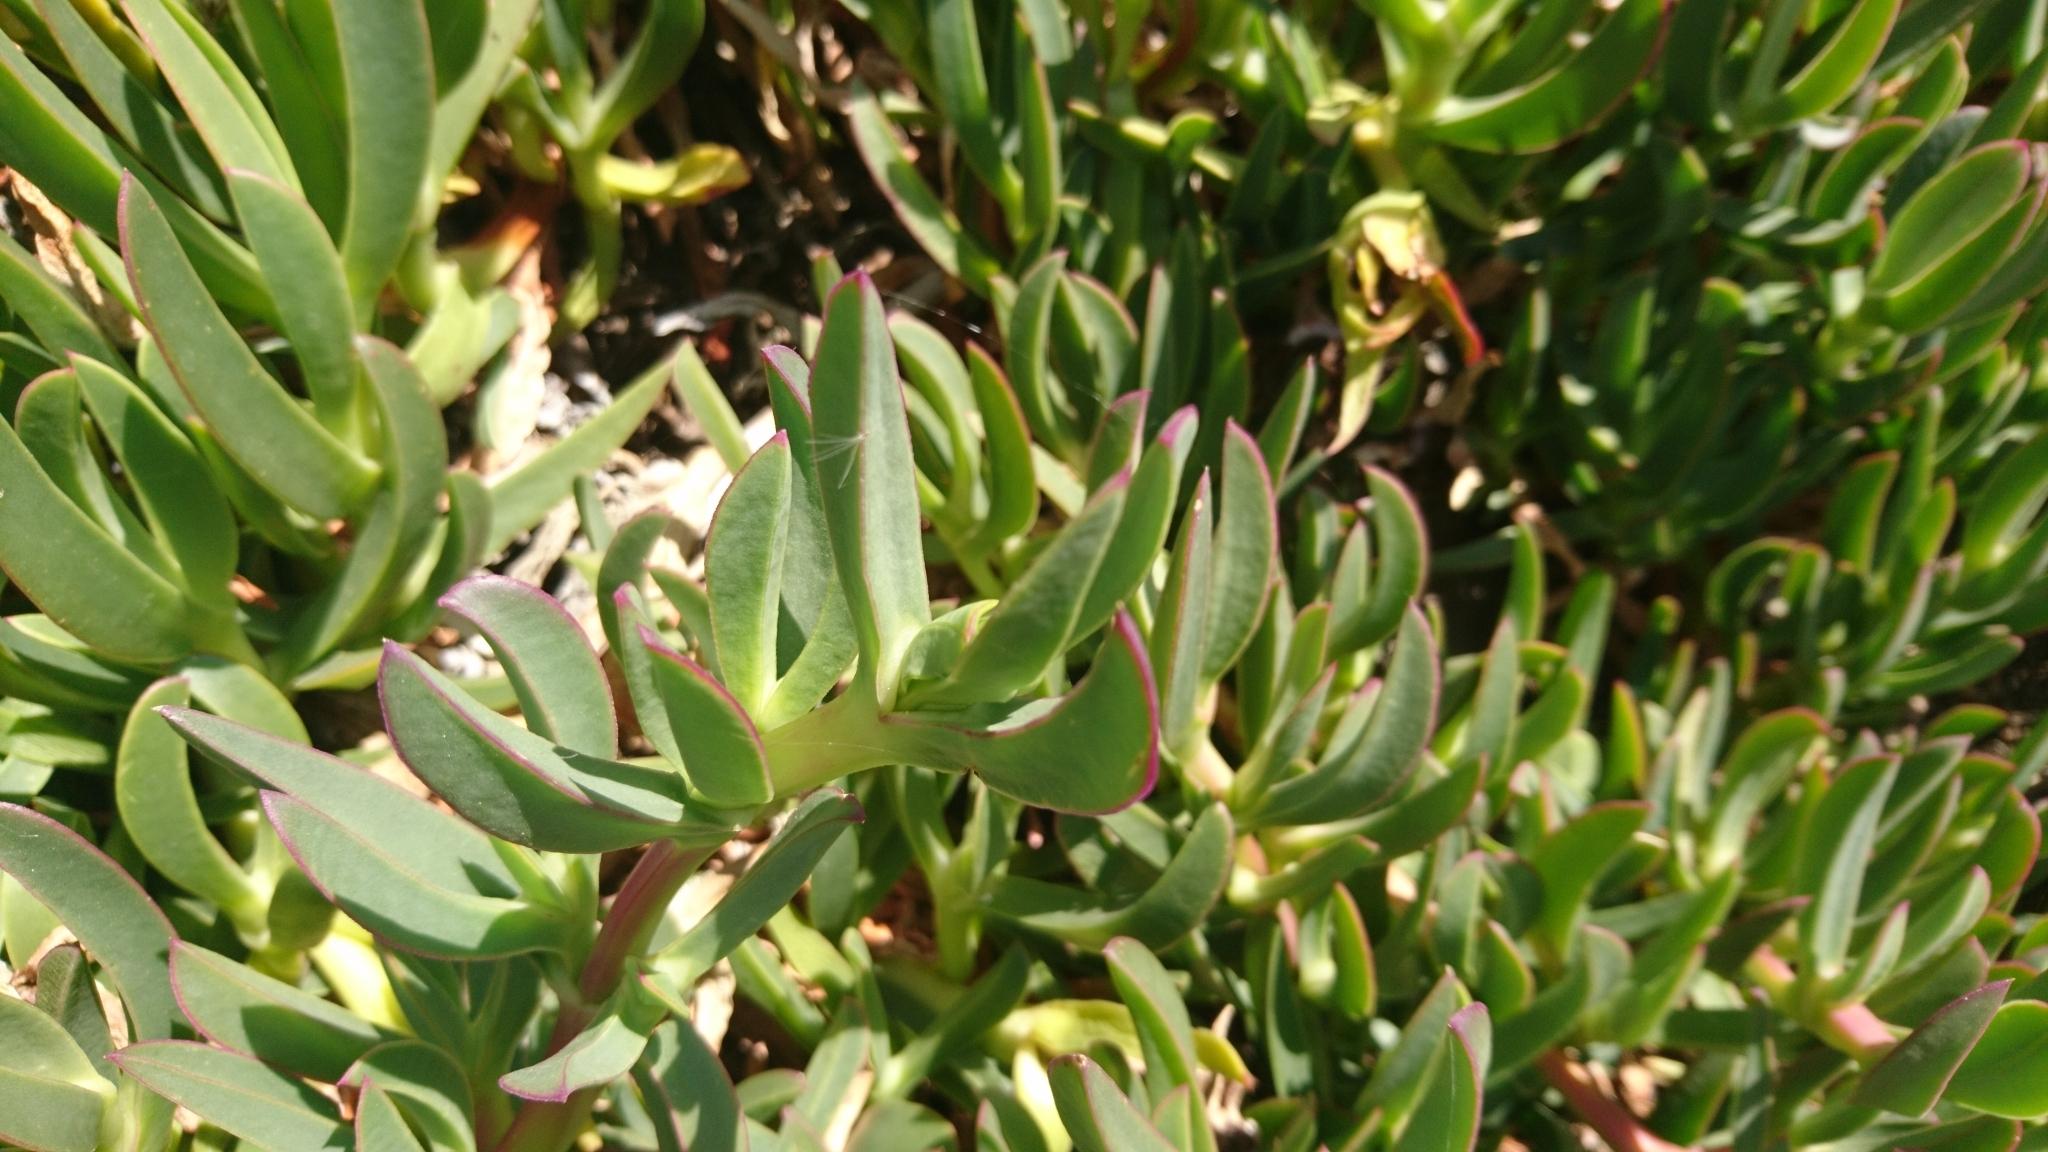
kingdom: Plantae
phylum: Tracheophyta
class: Magnoliopsida
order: Caryophyllales
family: Aizoaceae
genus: Carpobrotus
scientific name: Carpobrotus edulis
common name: Hottentot-fig
